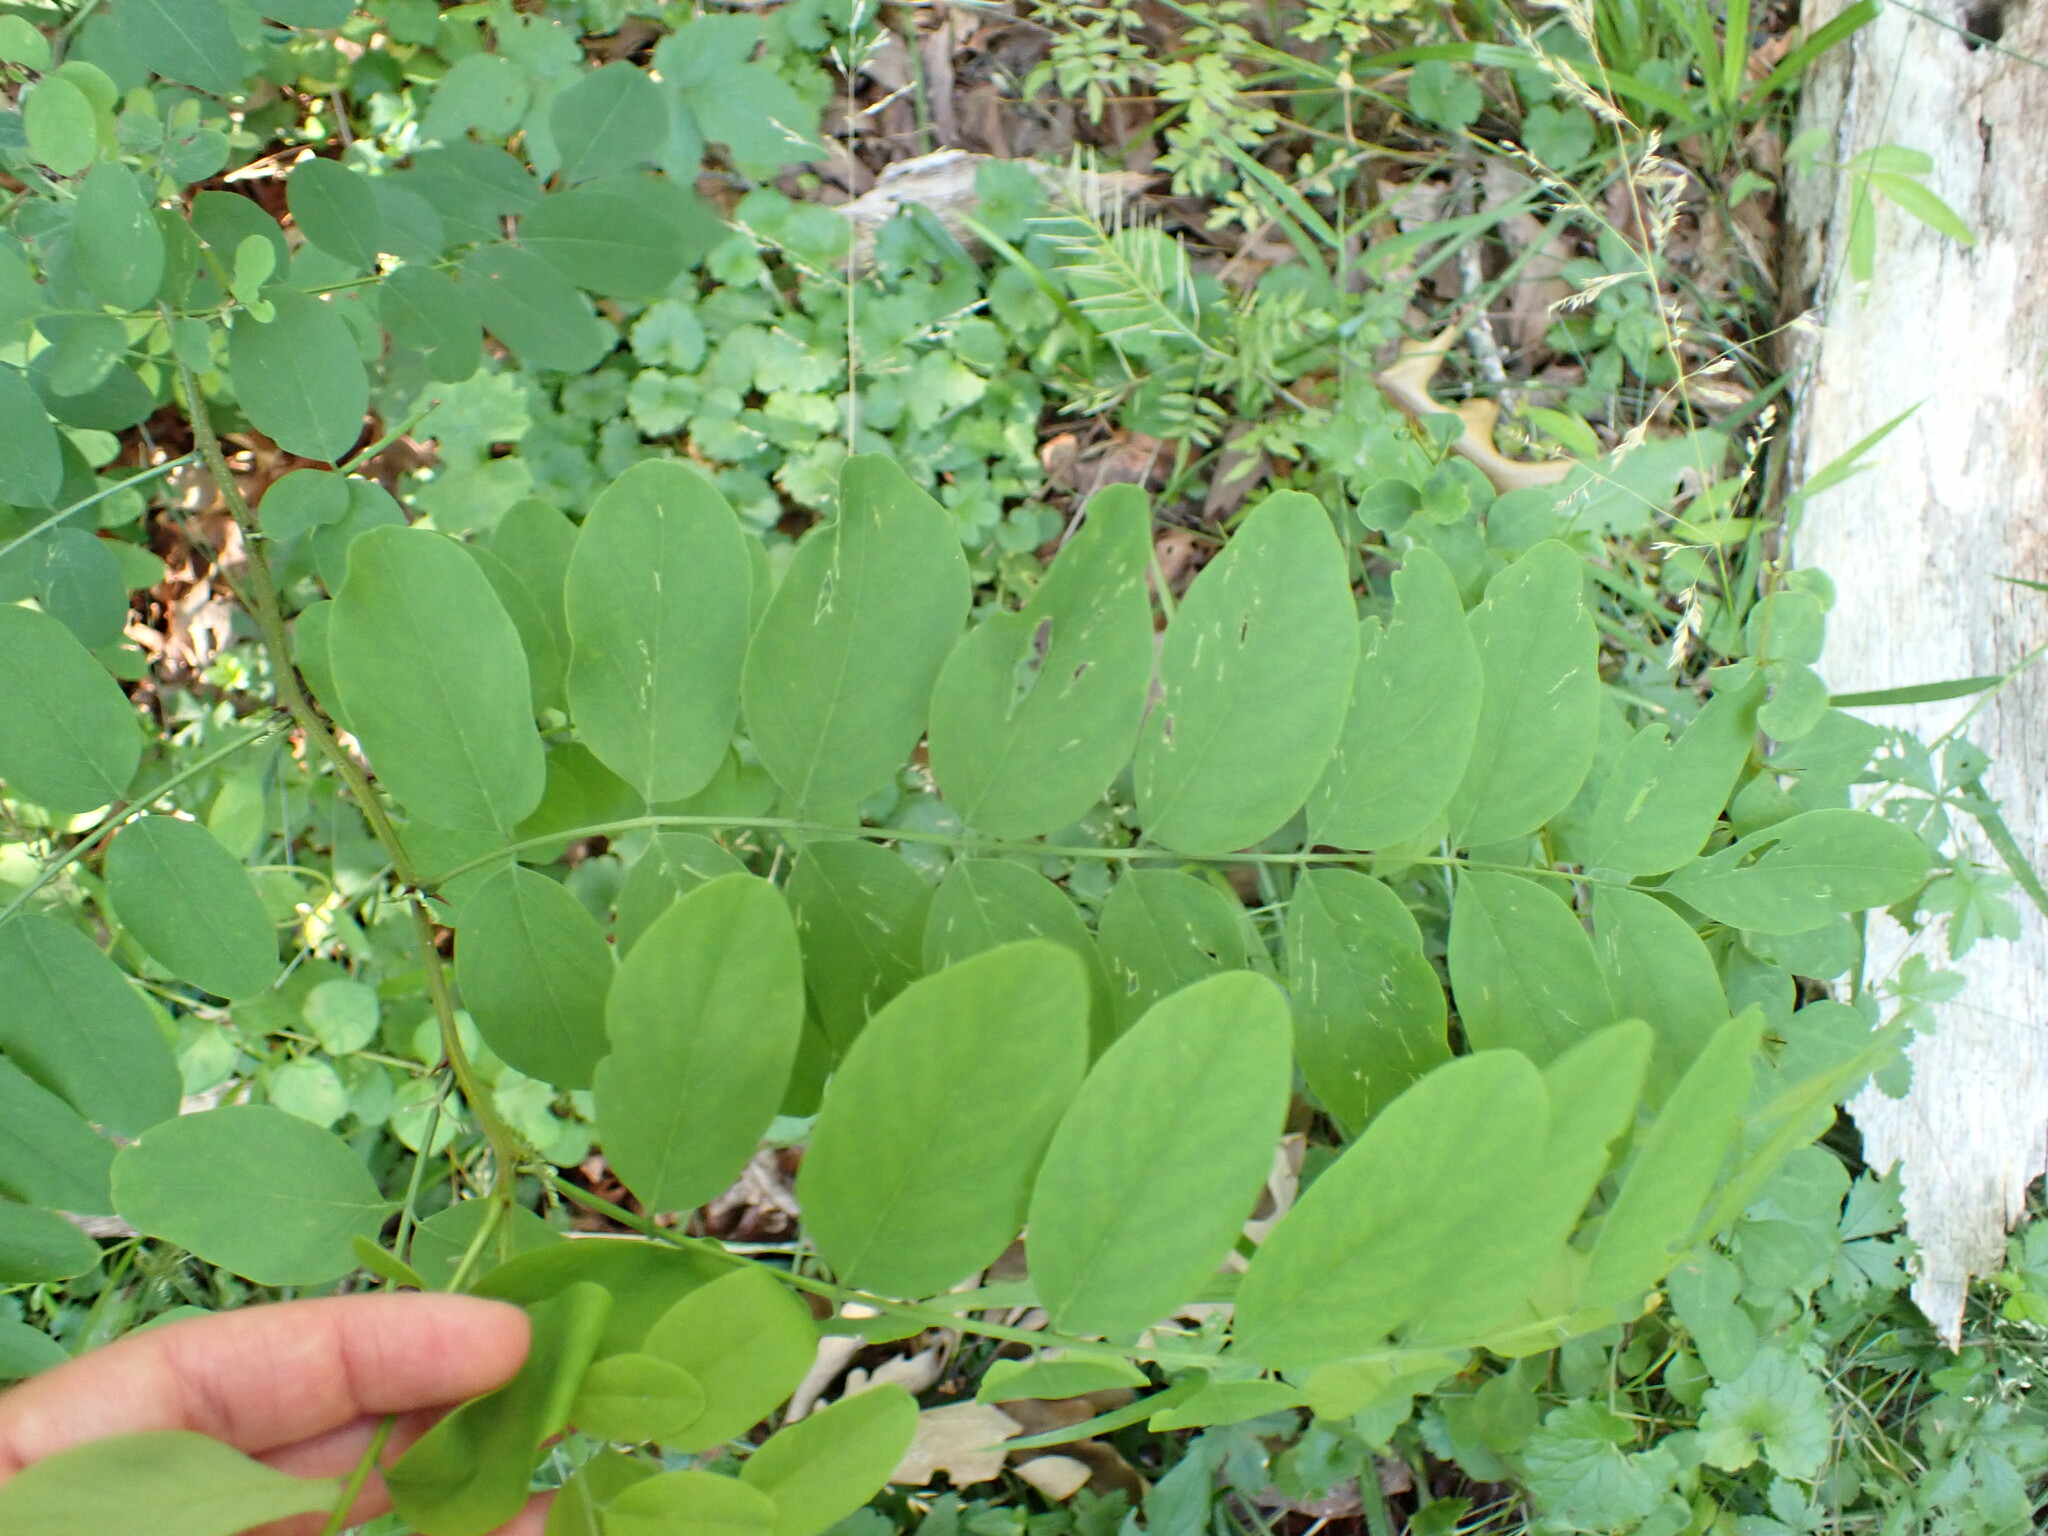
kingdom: Plantae
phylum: Tracheophyta
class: Magnoliopsida
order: Fabales
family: Fabaceae
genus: Robinia
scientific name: Robinia pseudoacacia
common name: Black locust
